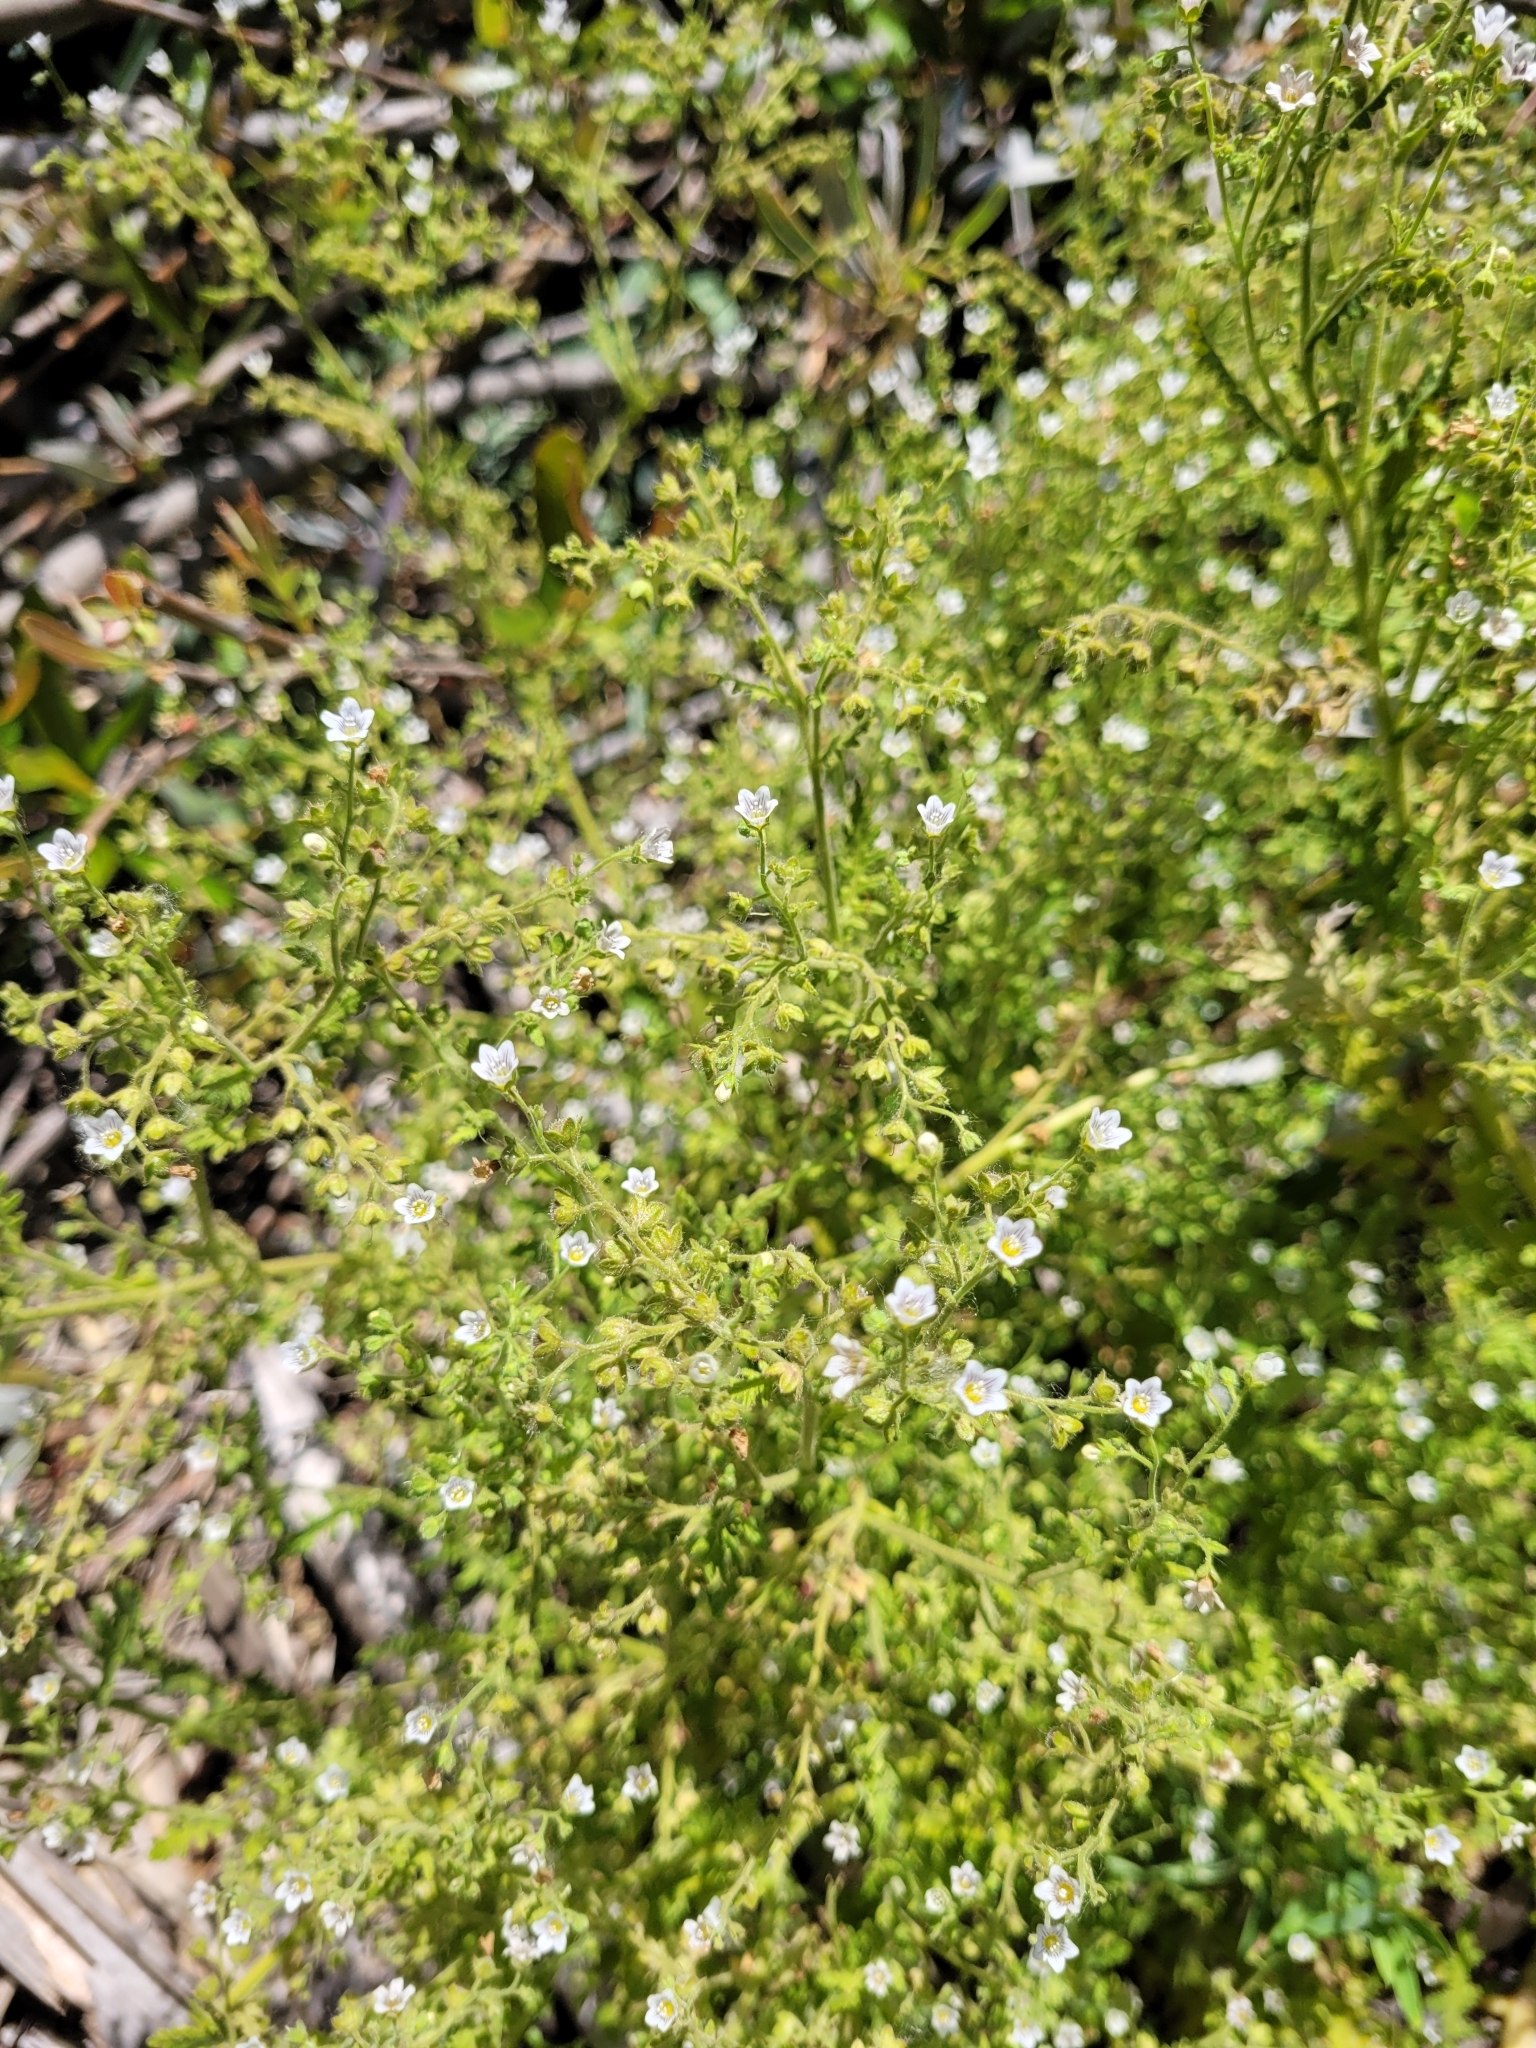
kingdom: Plantae
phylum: Tracheophyta
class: Magnoliopsida
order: Boraginales
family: Hydrophyllaceae
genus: Eucrypta
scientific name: Eucrypta chrysanthemifolia
